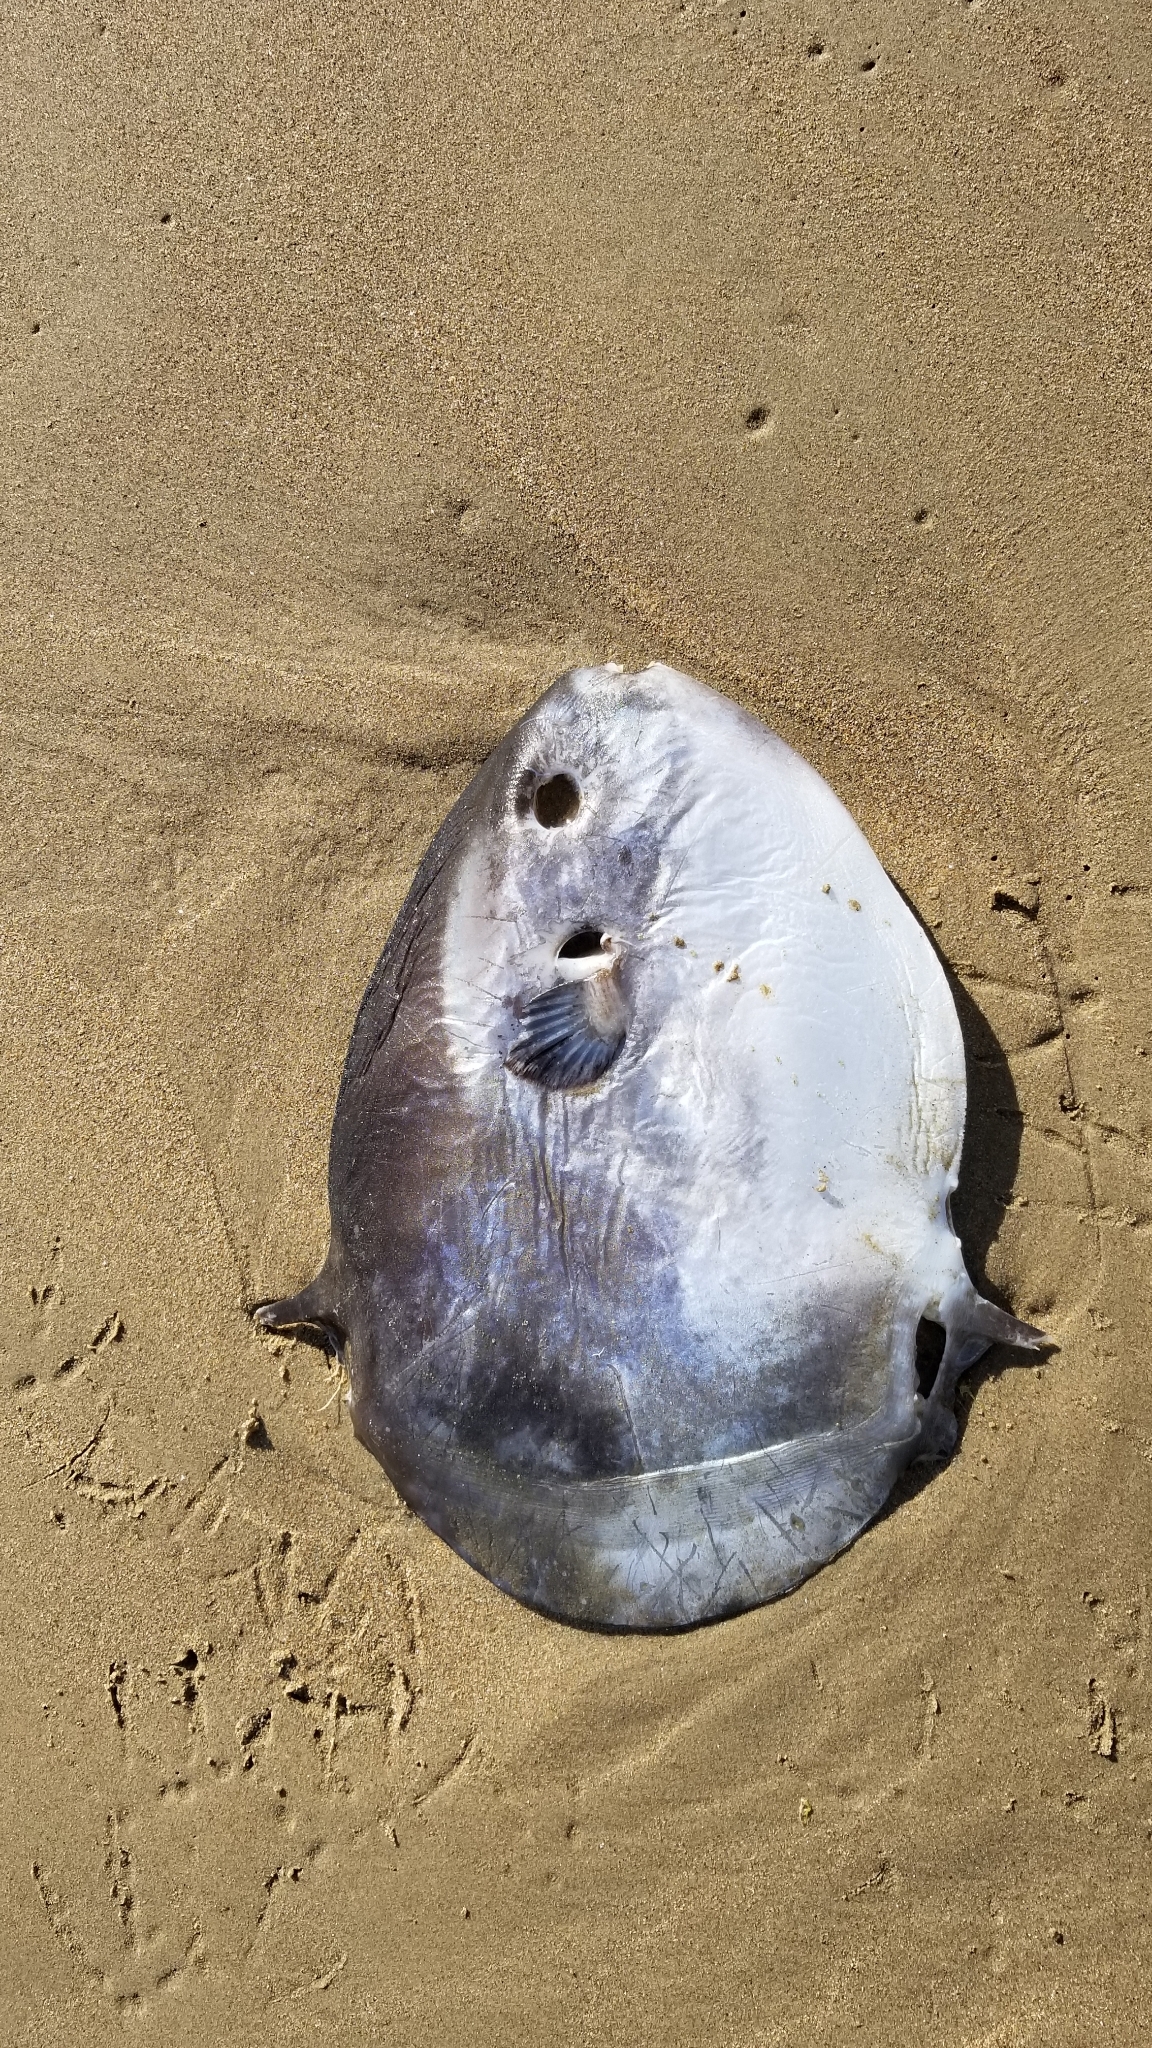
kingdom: Animalia
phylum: Chordata
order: Tetraodontiformes
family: Molidae
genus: Mola
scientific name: Mola mola
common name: Ocean sunfish
